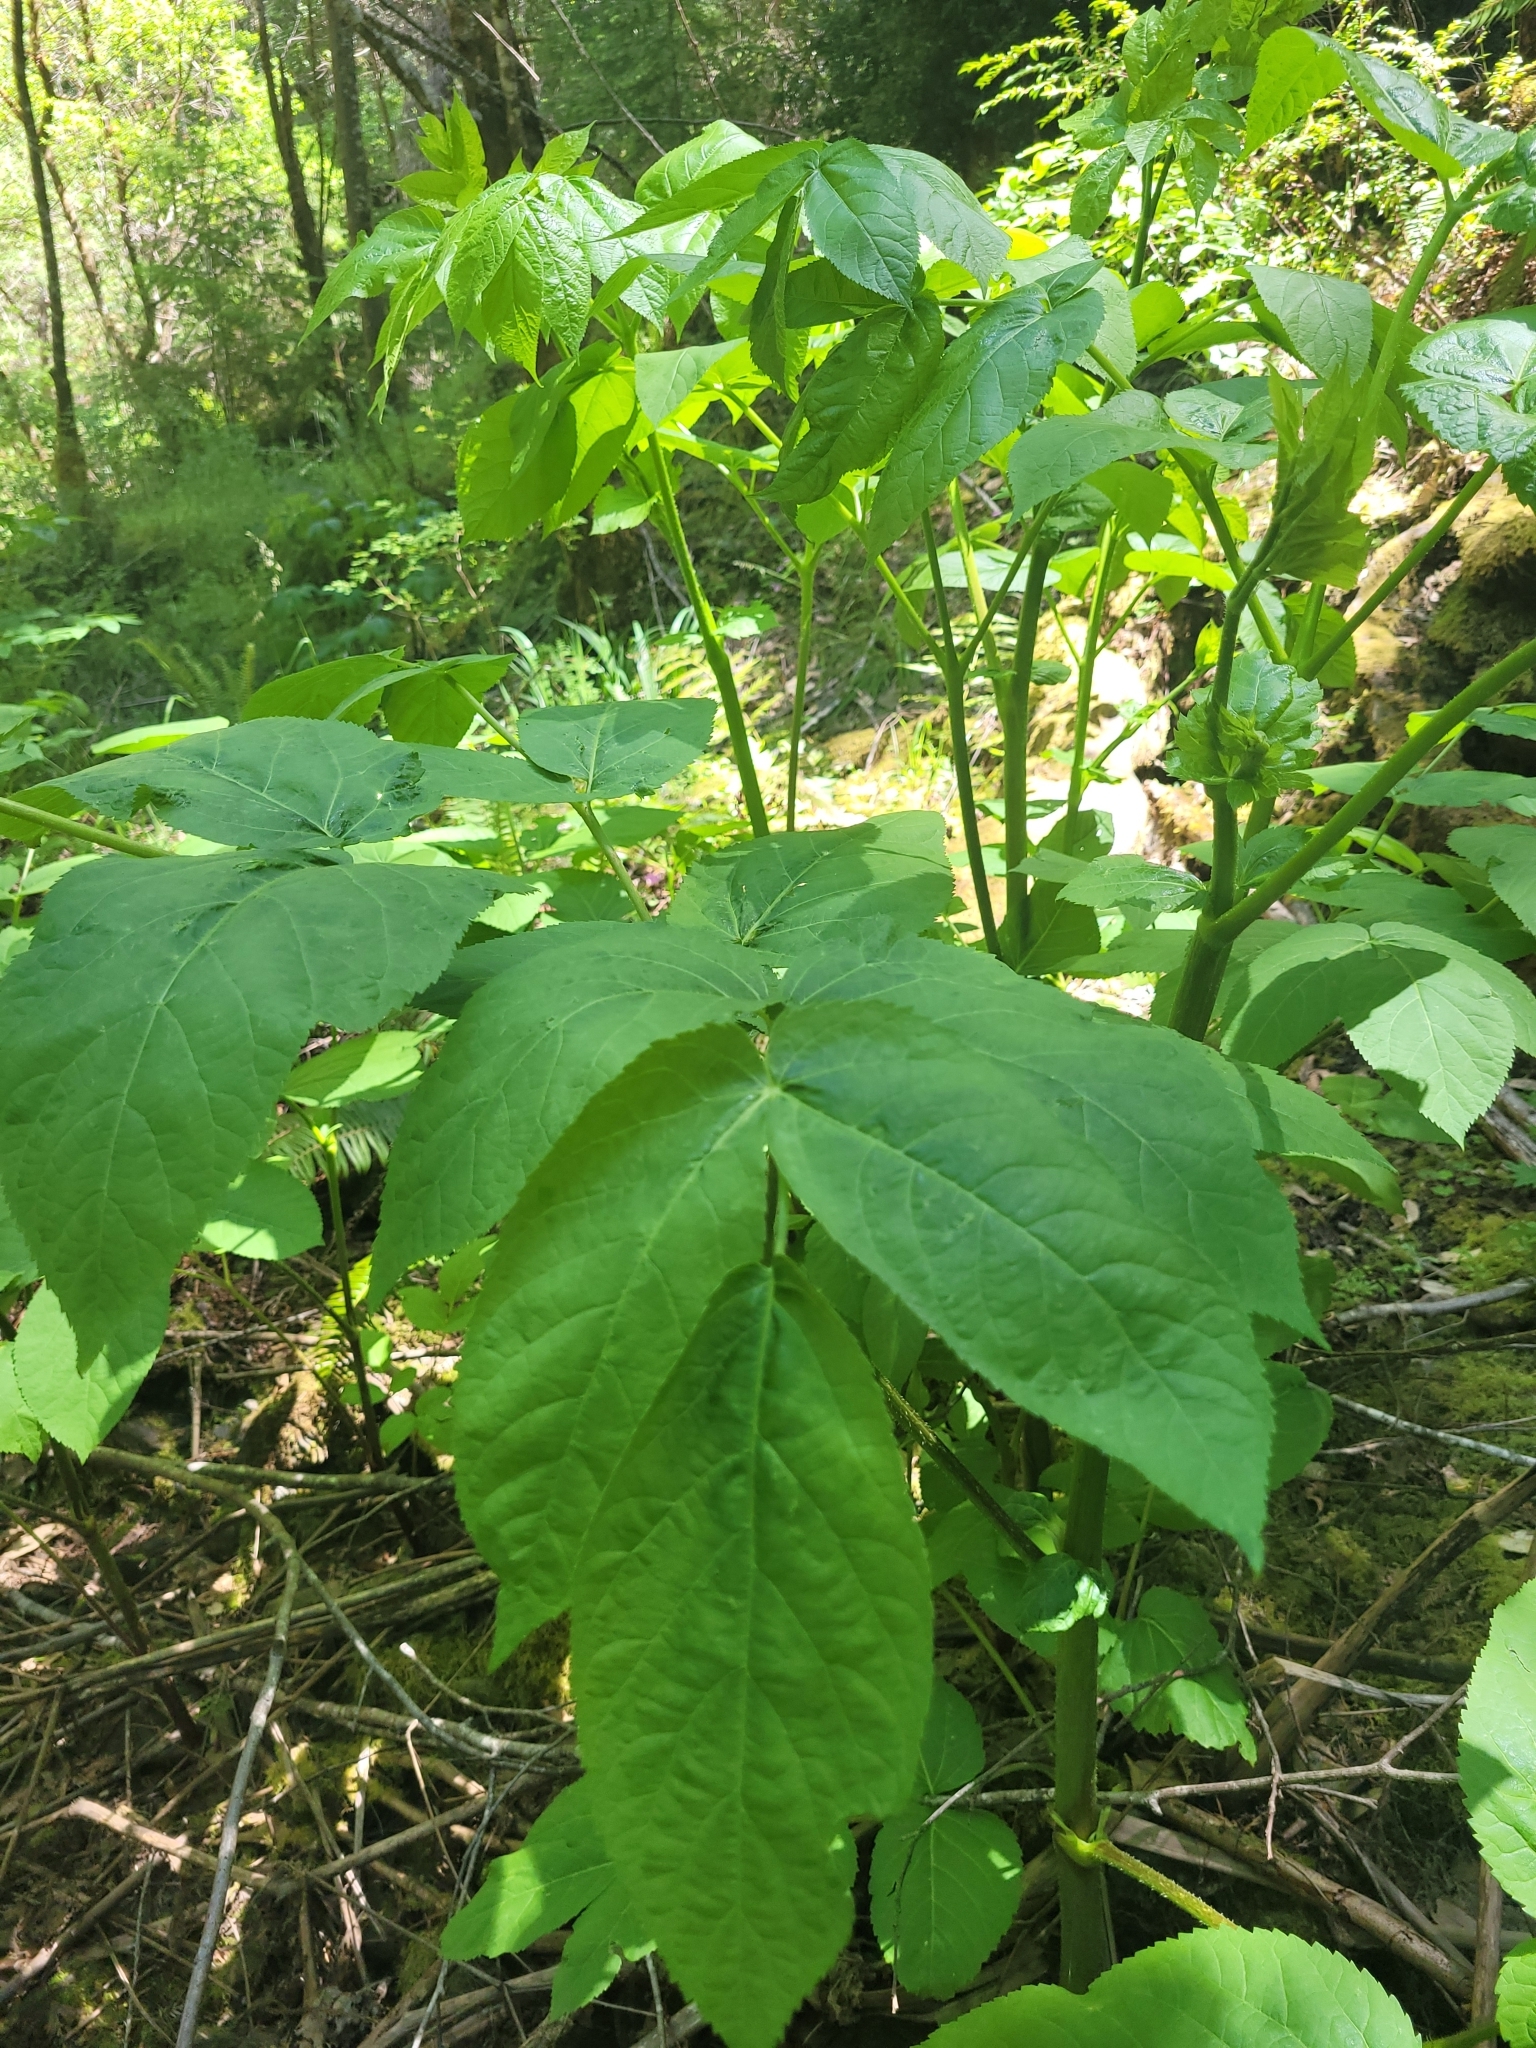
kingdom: Plantae
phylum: Tracheophyta
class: Magnoliopsida
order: Apiales
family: Araliaceae
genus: Aralia
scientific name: Aralia californica
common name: California-ginseng
